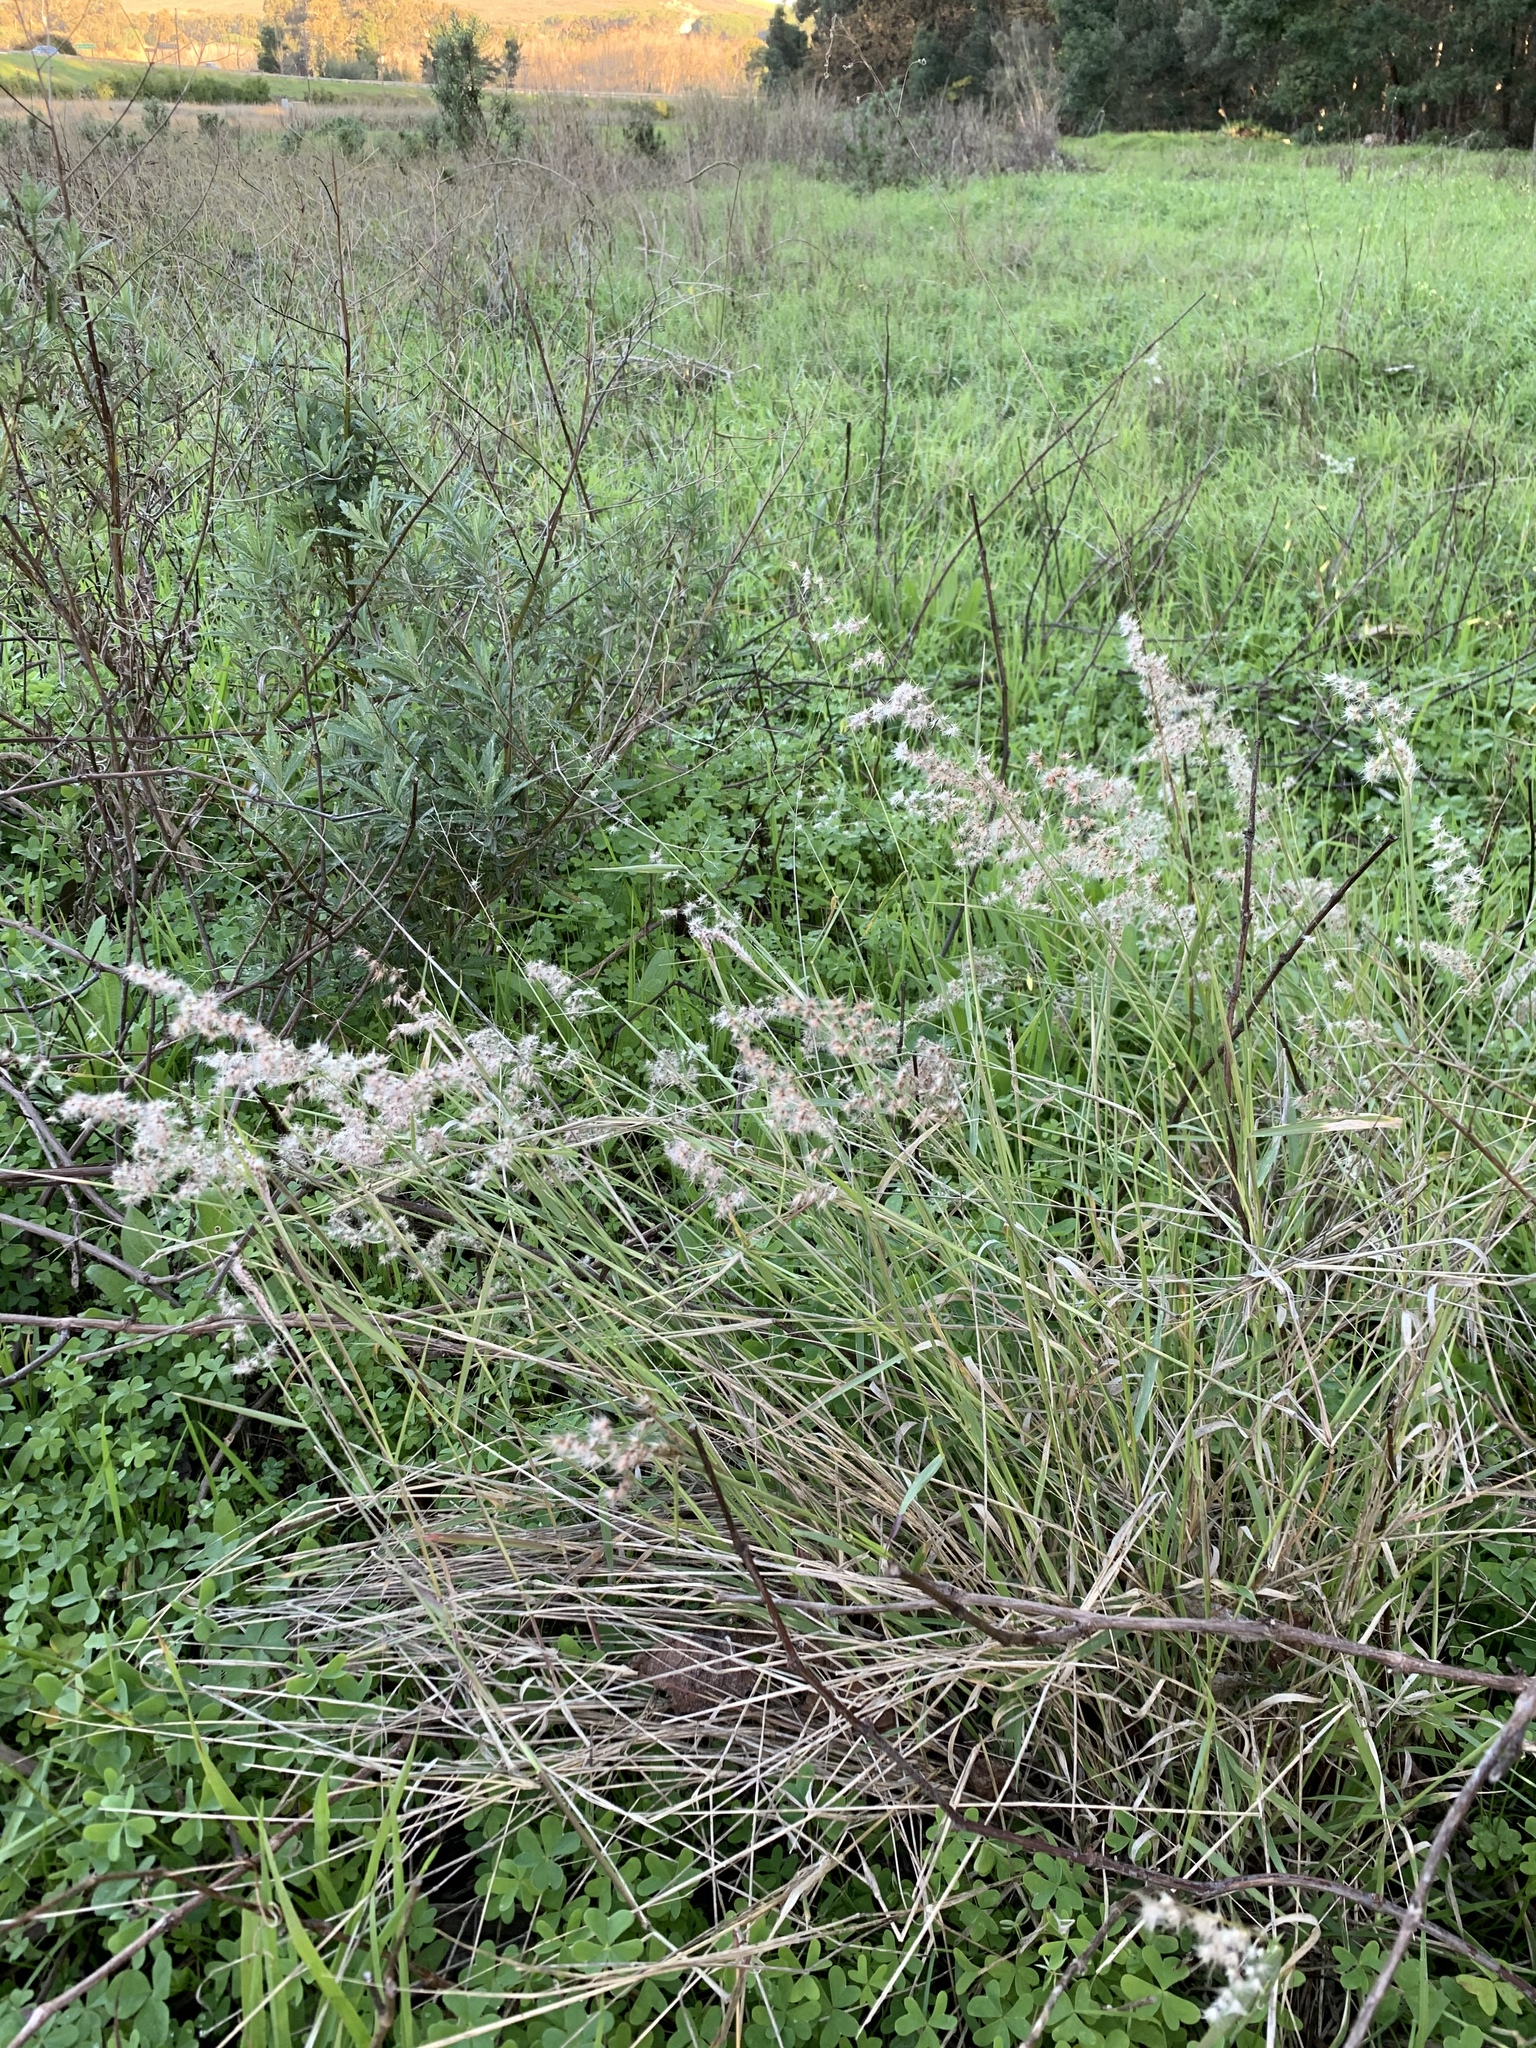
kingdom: Plantae
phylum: Tracheophyta
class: Liliopsida
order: Poales
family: Poaceae
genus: Melinis
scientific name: Melinis repens
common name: Rose natal grass
